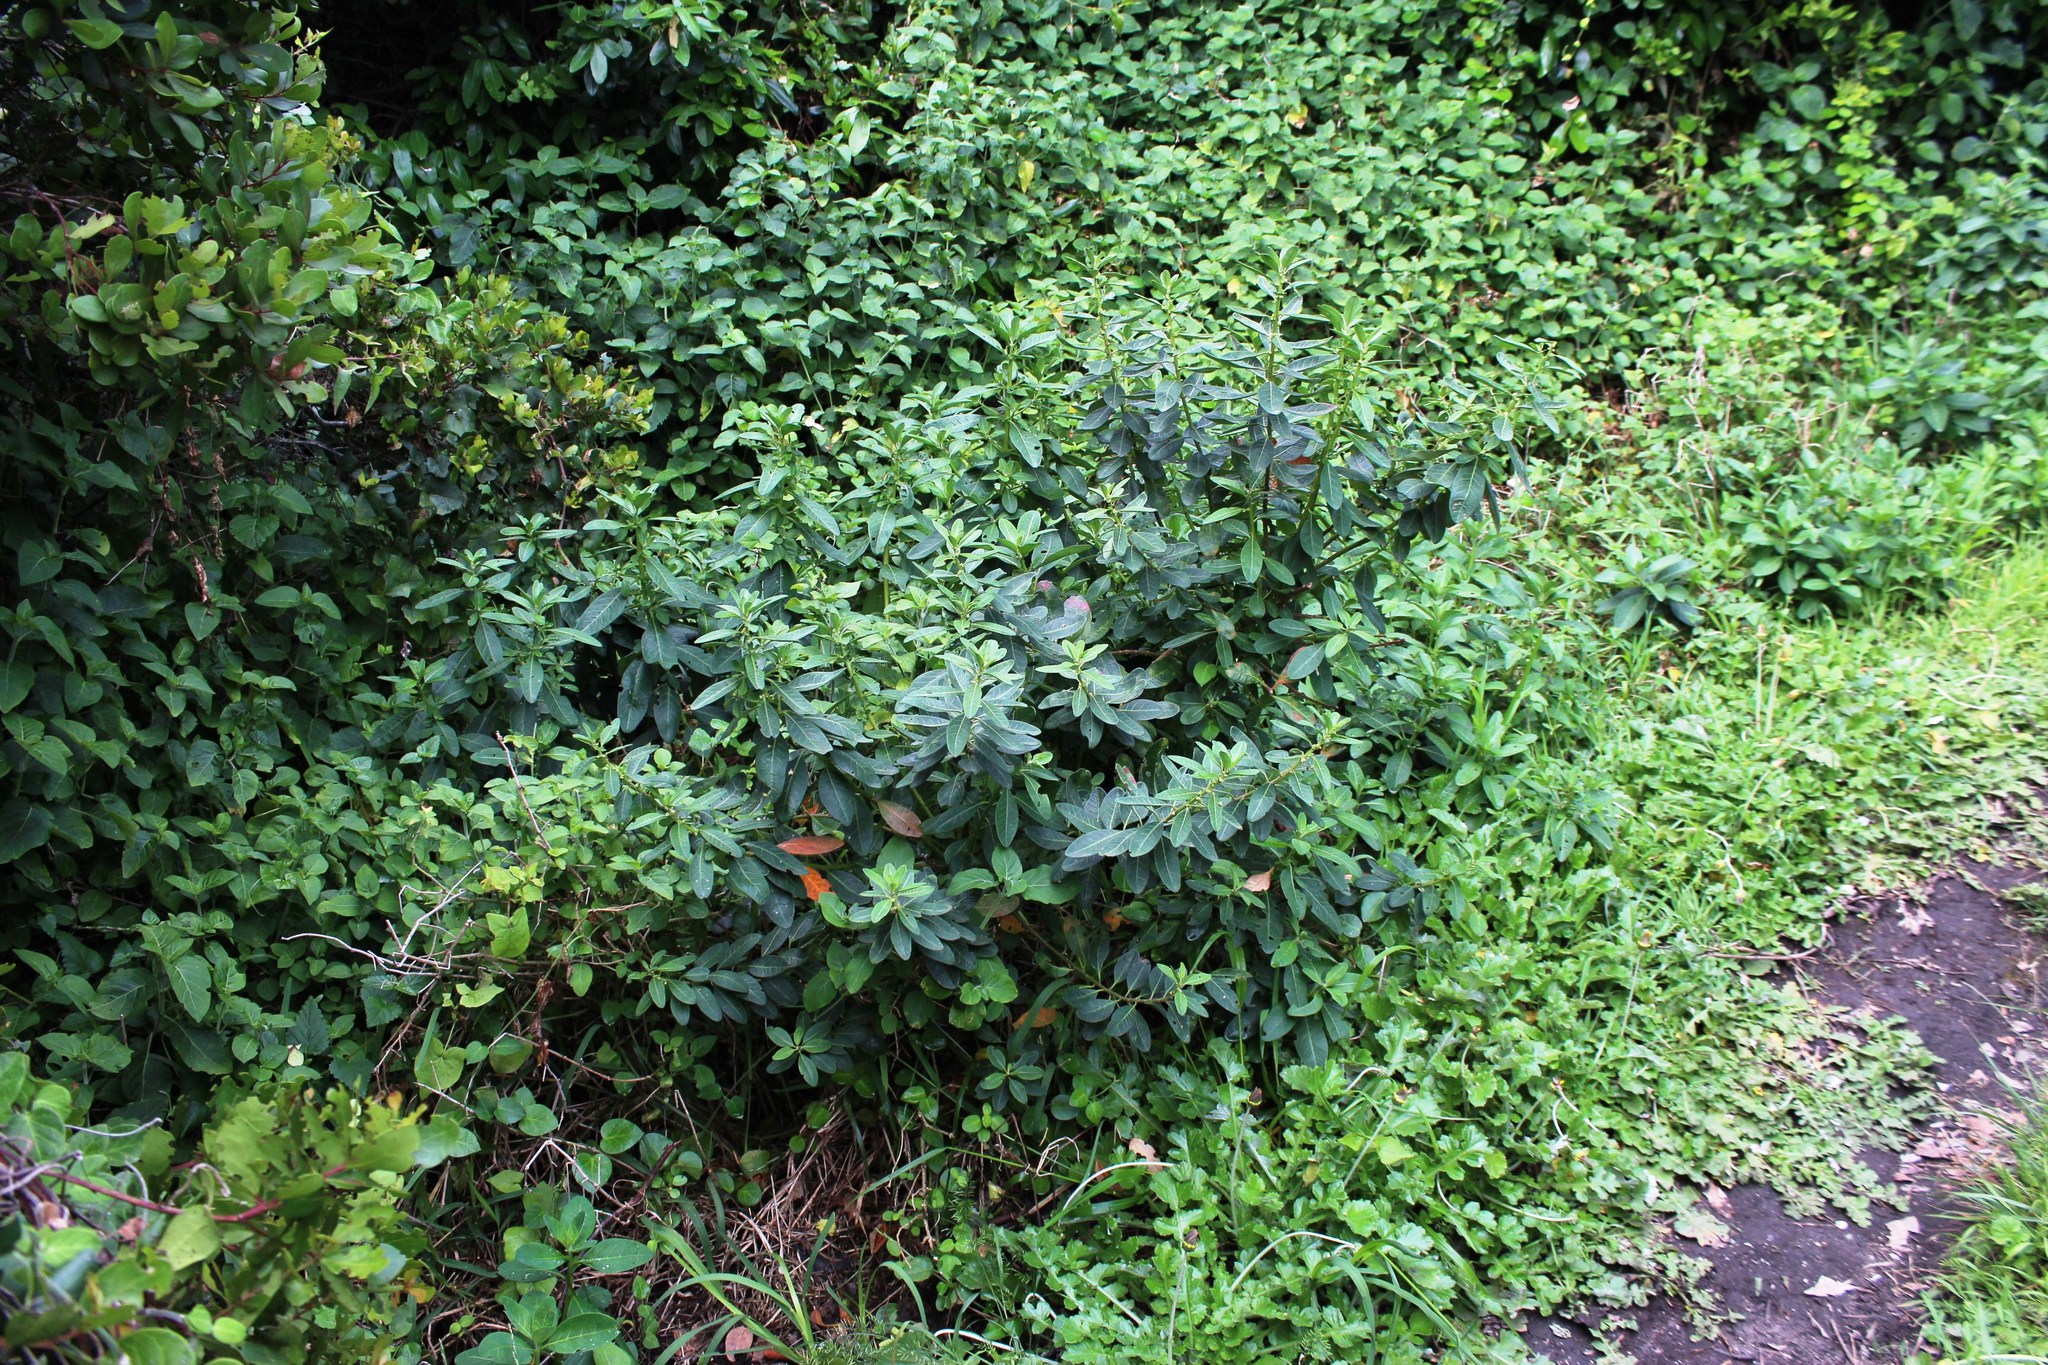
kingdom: Plantae
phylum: Tracheophyta
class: Magnoliopsida
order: Malpighiales
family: Peraceae
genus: Clutia
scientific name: Clutia pulchella
